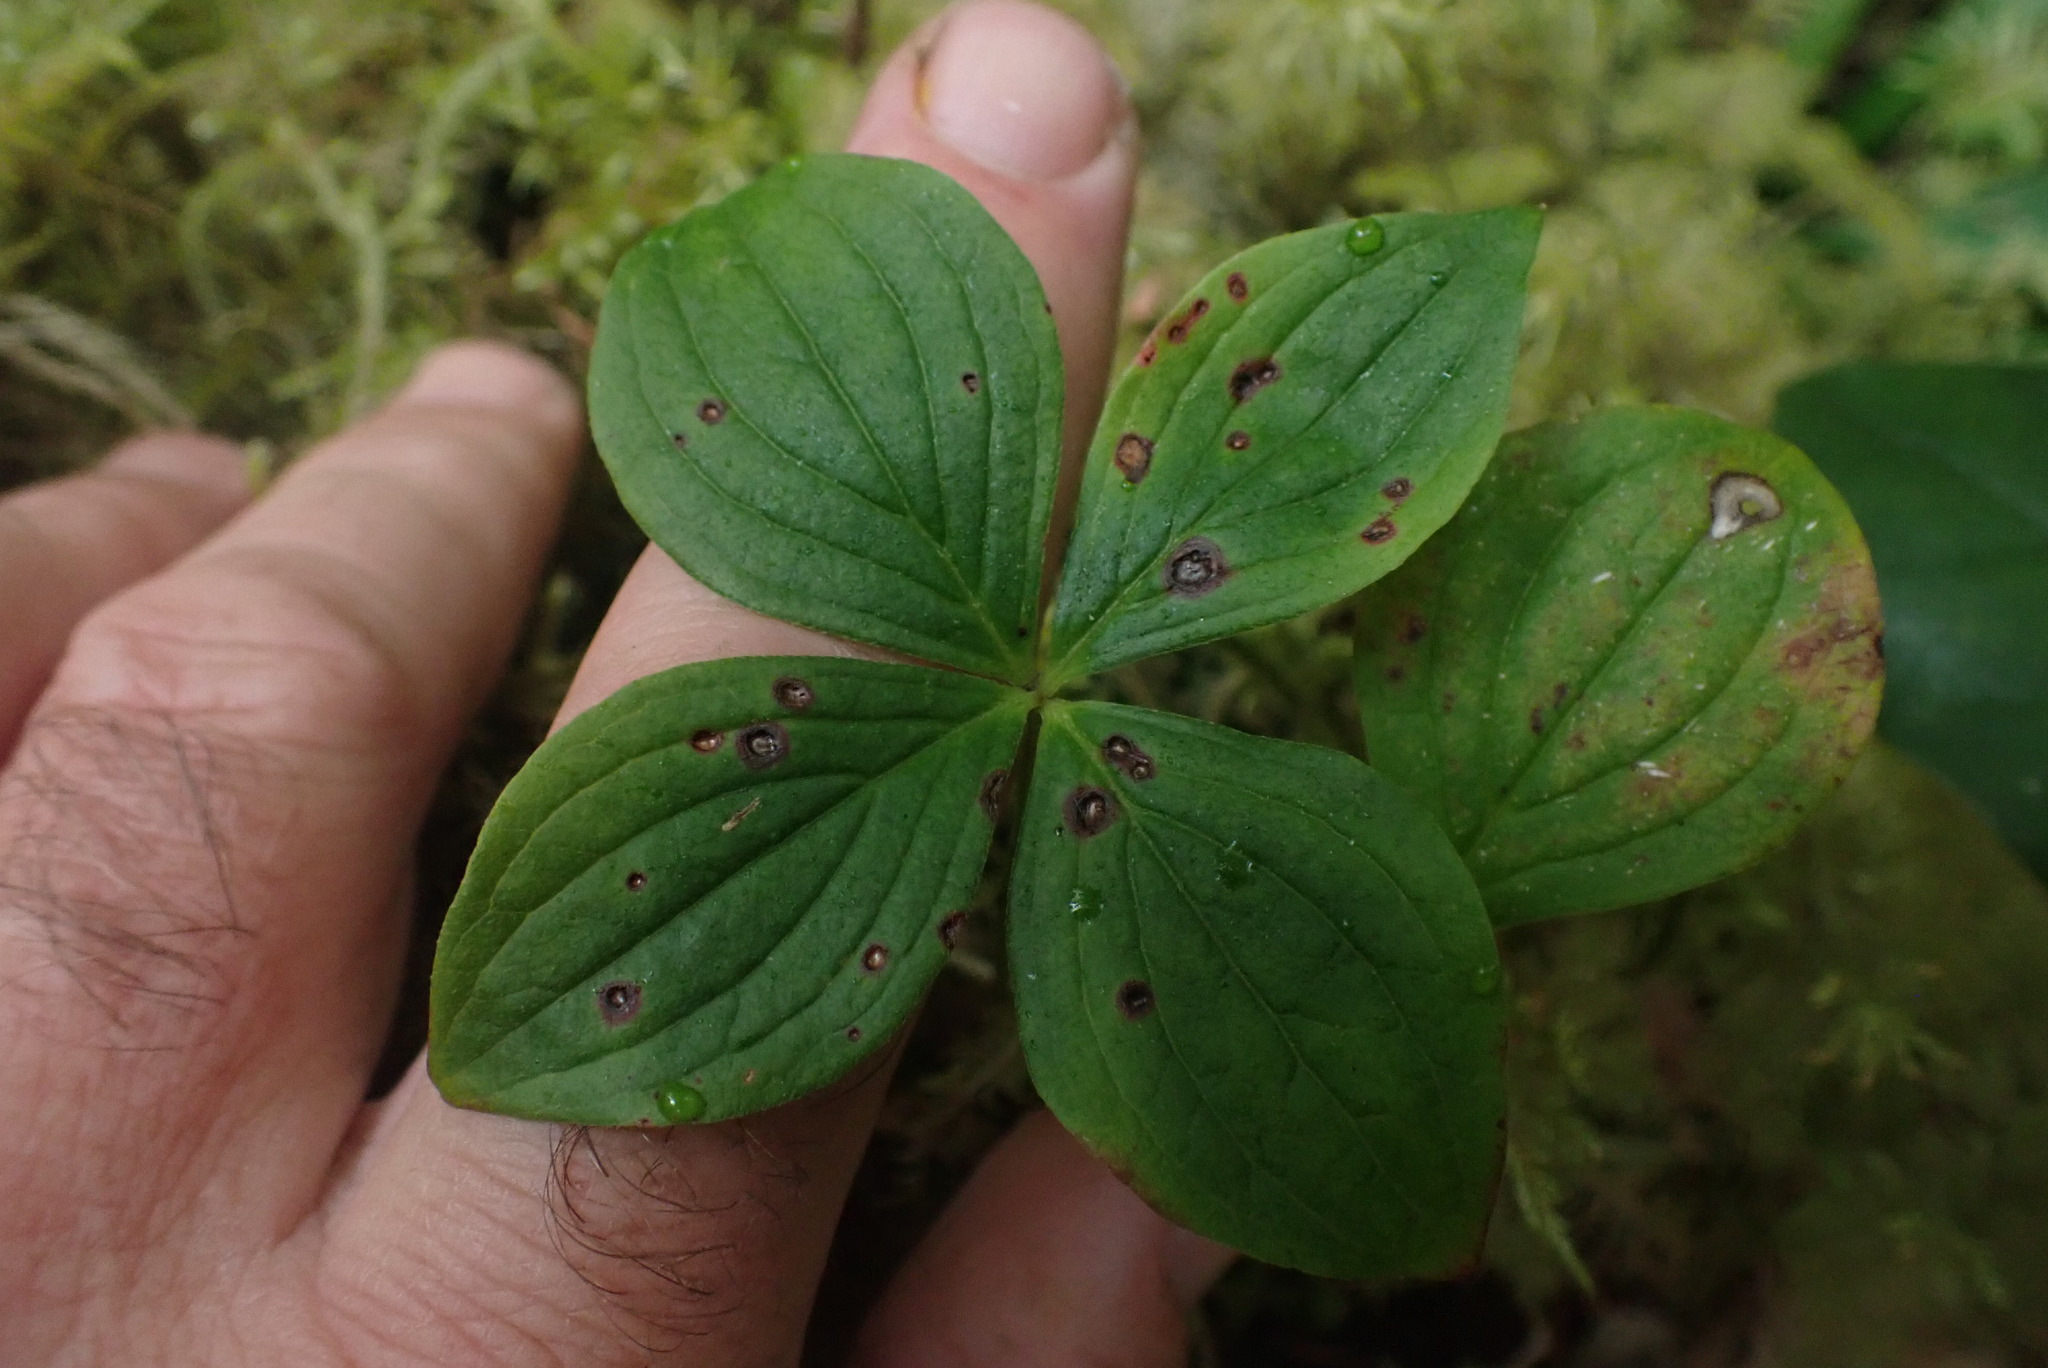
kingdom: Plantae
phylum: Tracheophyta
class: Magnoliopsida
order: Cornales
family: Cornaceae
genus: Cornus
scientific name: Cornus unalaschkensis
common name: Alaska bunchberry
